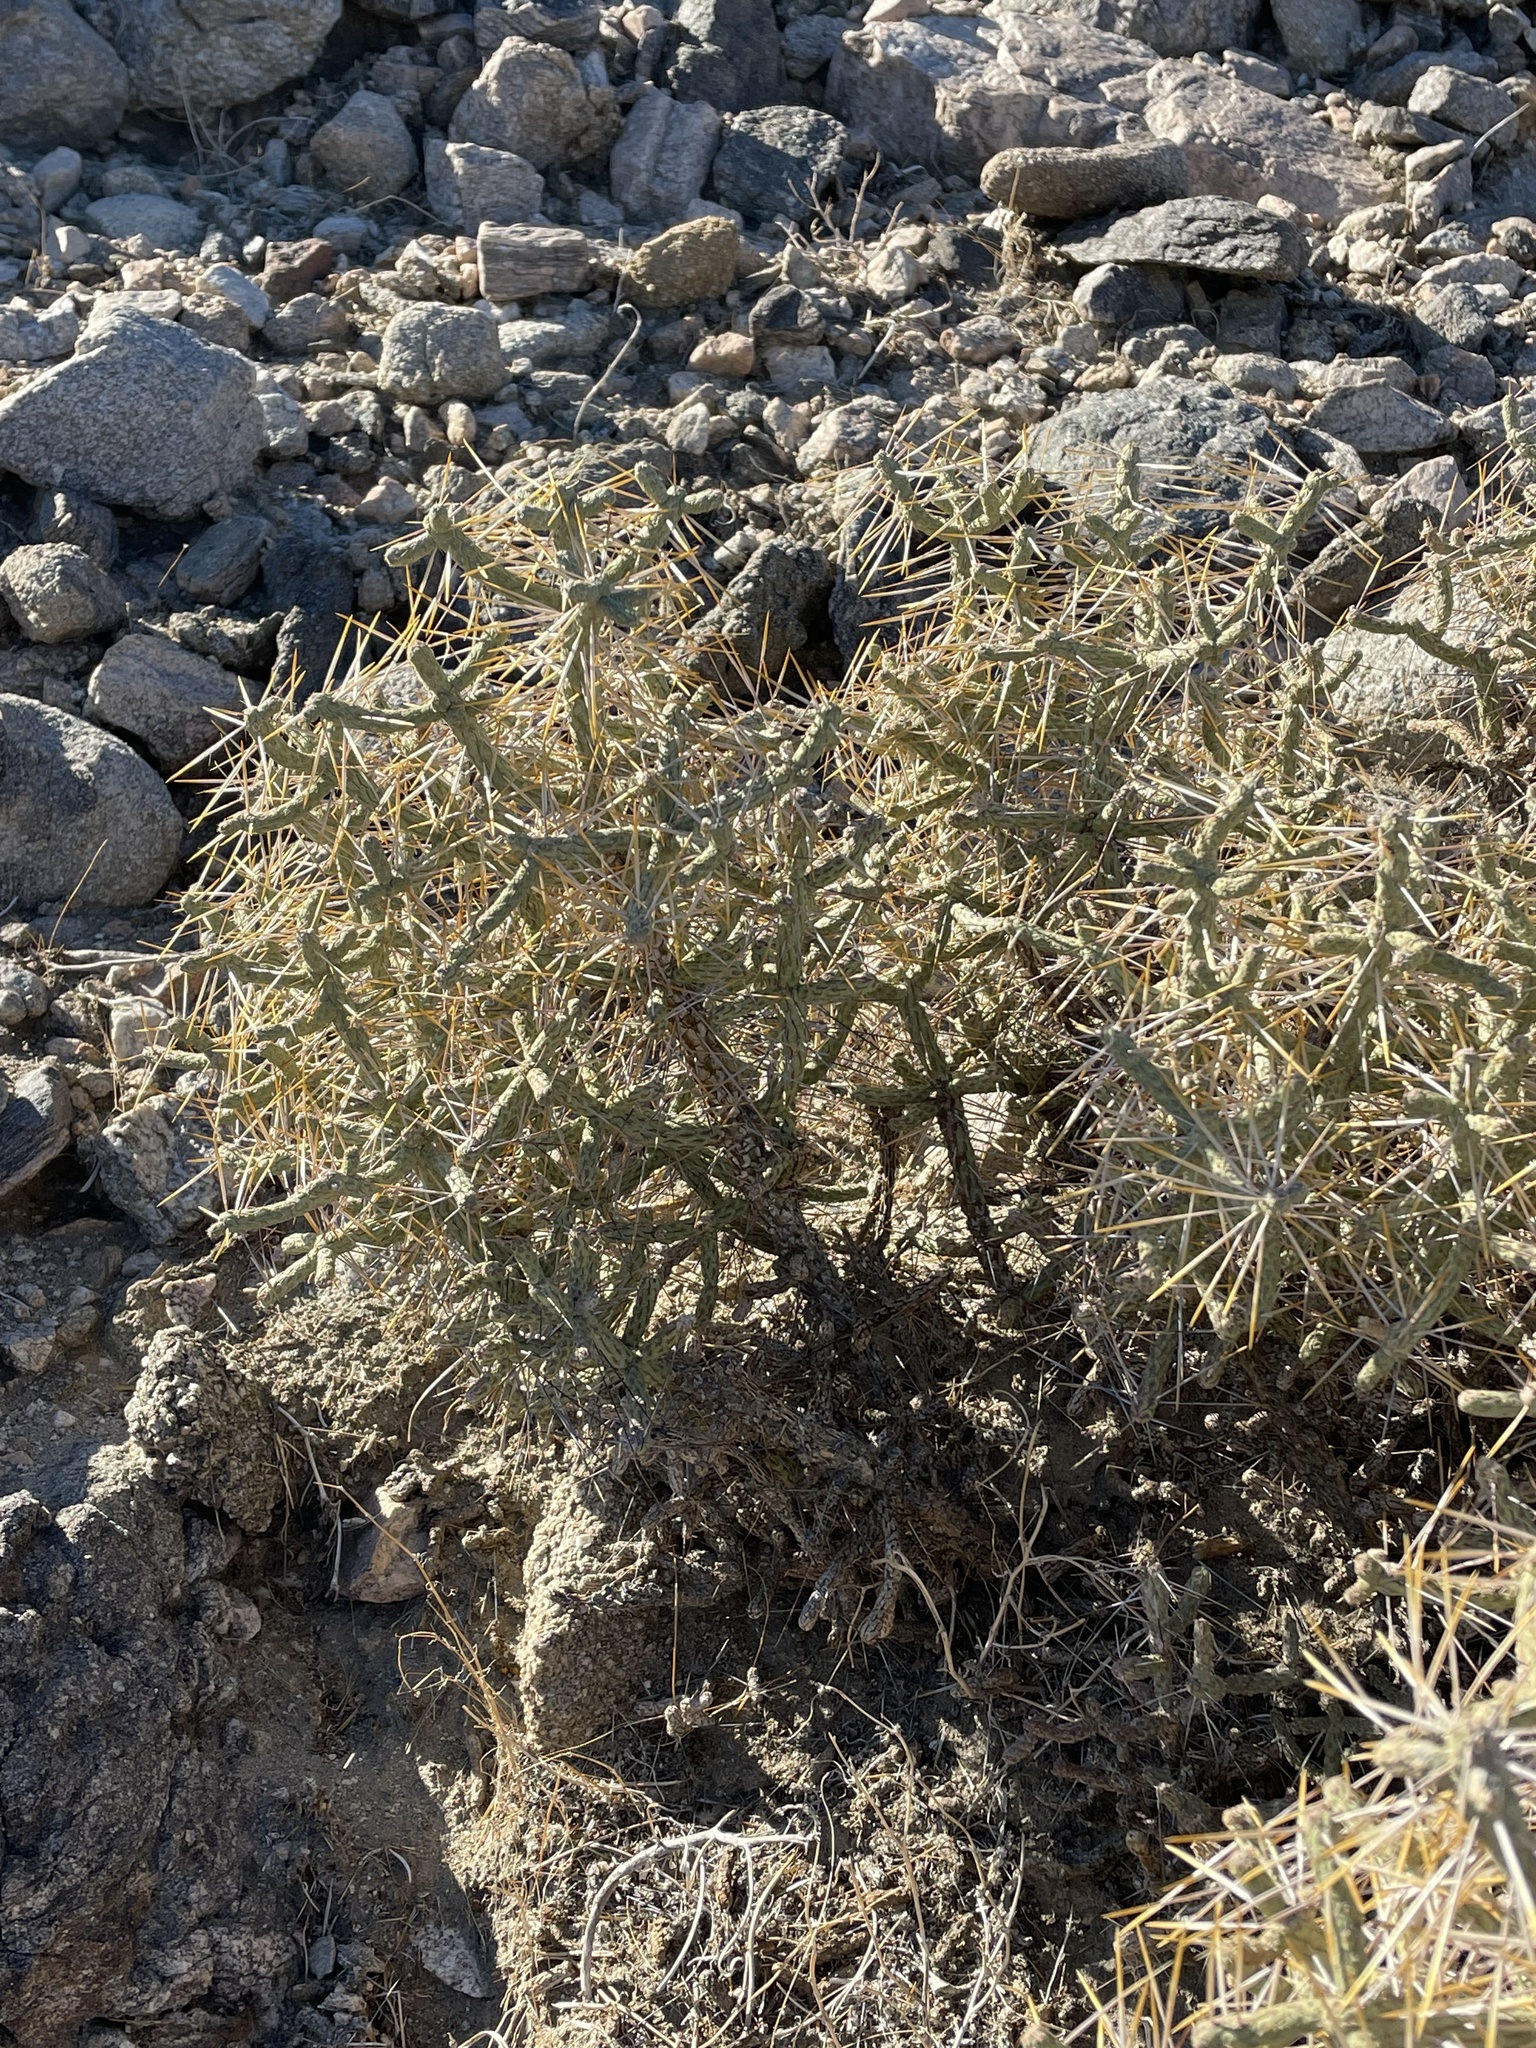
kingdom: Plantae
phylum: Tracheophyta
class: Magnoliopsida
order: Caryophyllales
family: Cactaceae
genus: Cylindropuntia
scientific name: Cylindropuntia ramosissima
